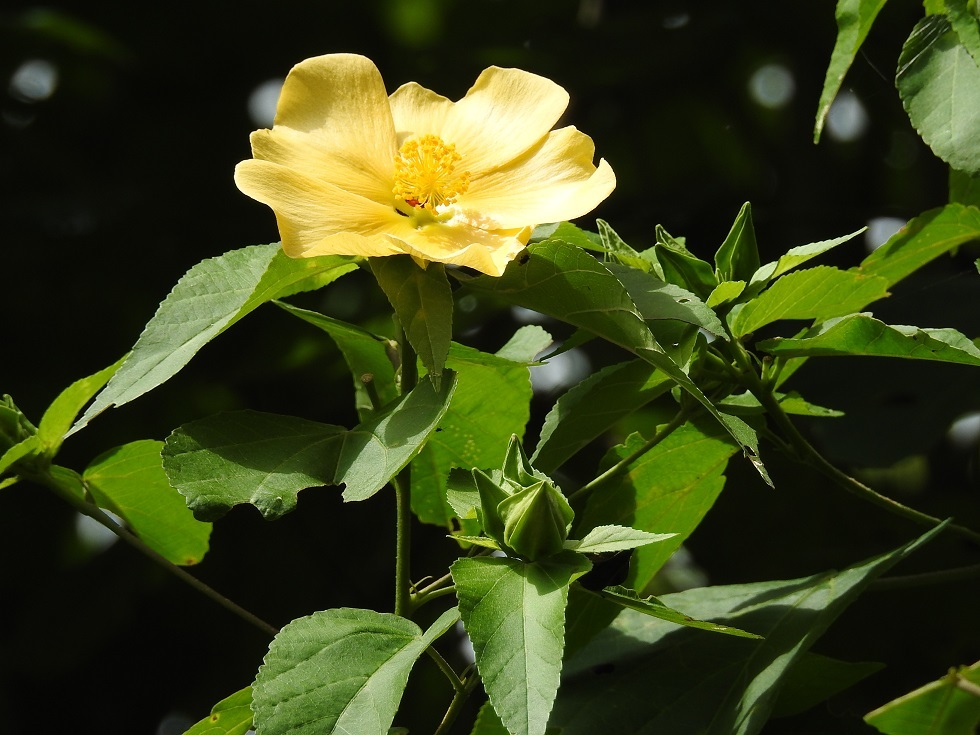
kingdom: Plantae
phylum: Tracheophyta
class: Magnoliopsida
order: Malvales
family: Malvaceae
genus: Dendrosida
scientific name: Dendrosida sharpiana
